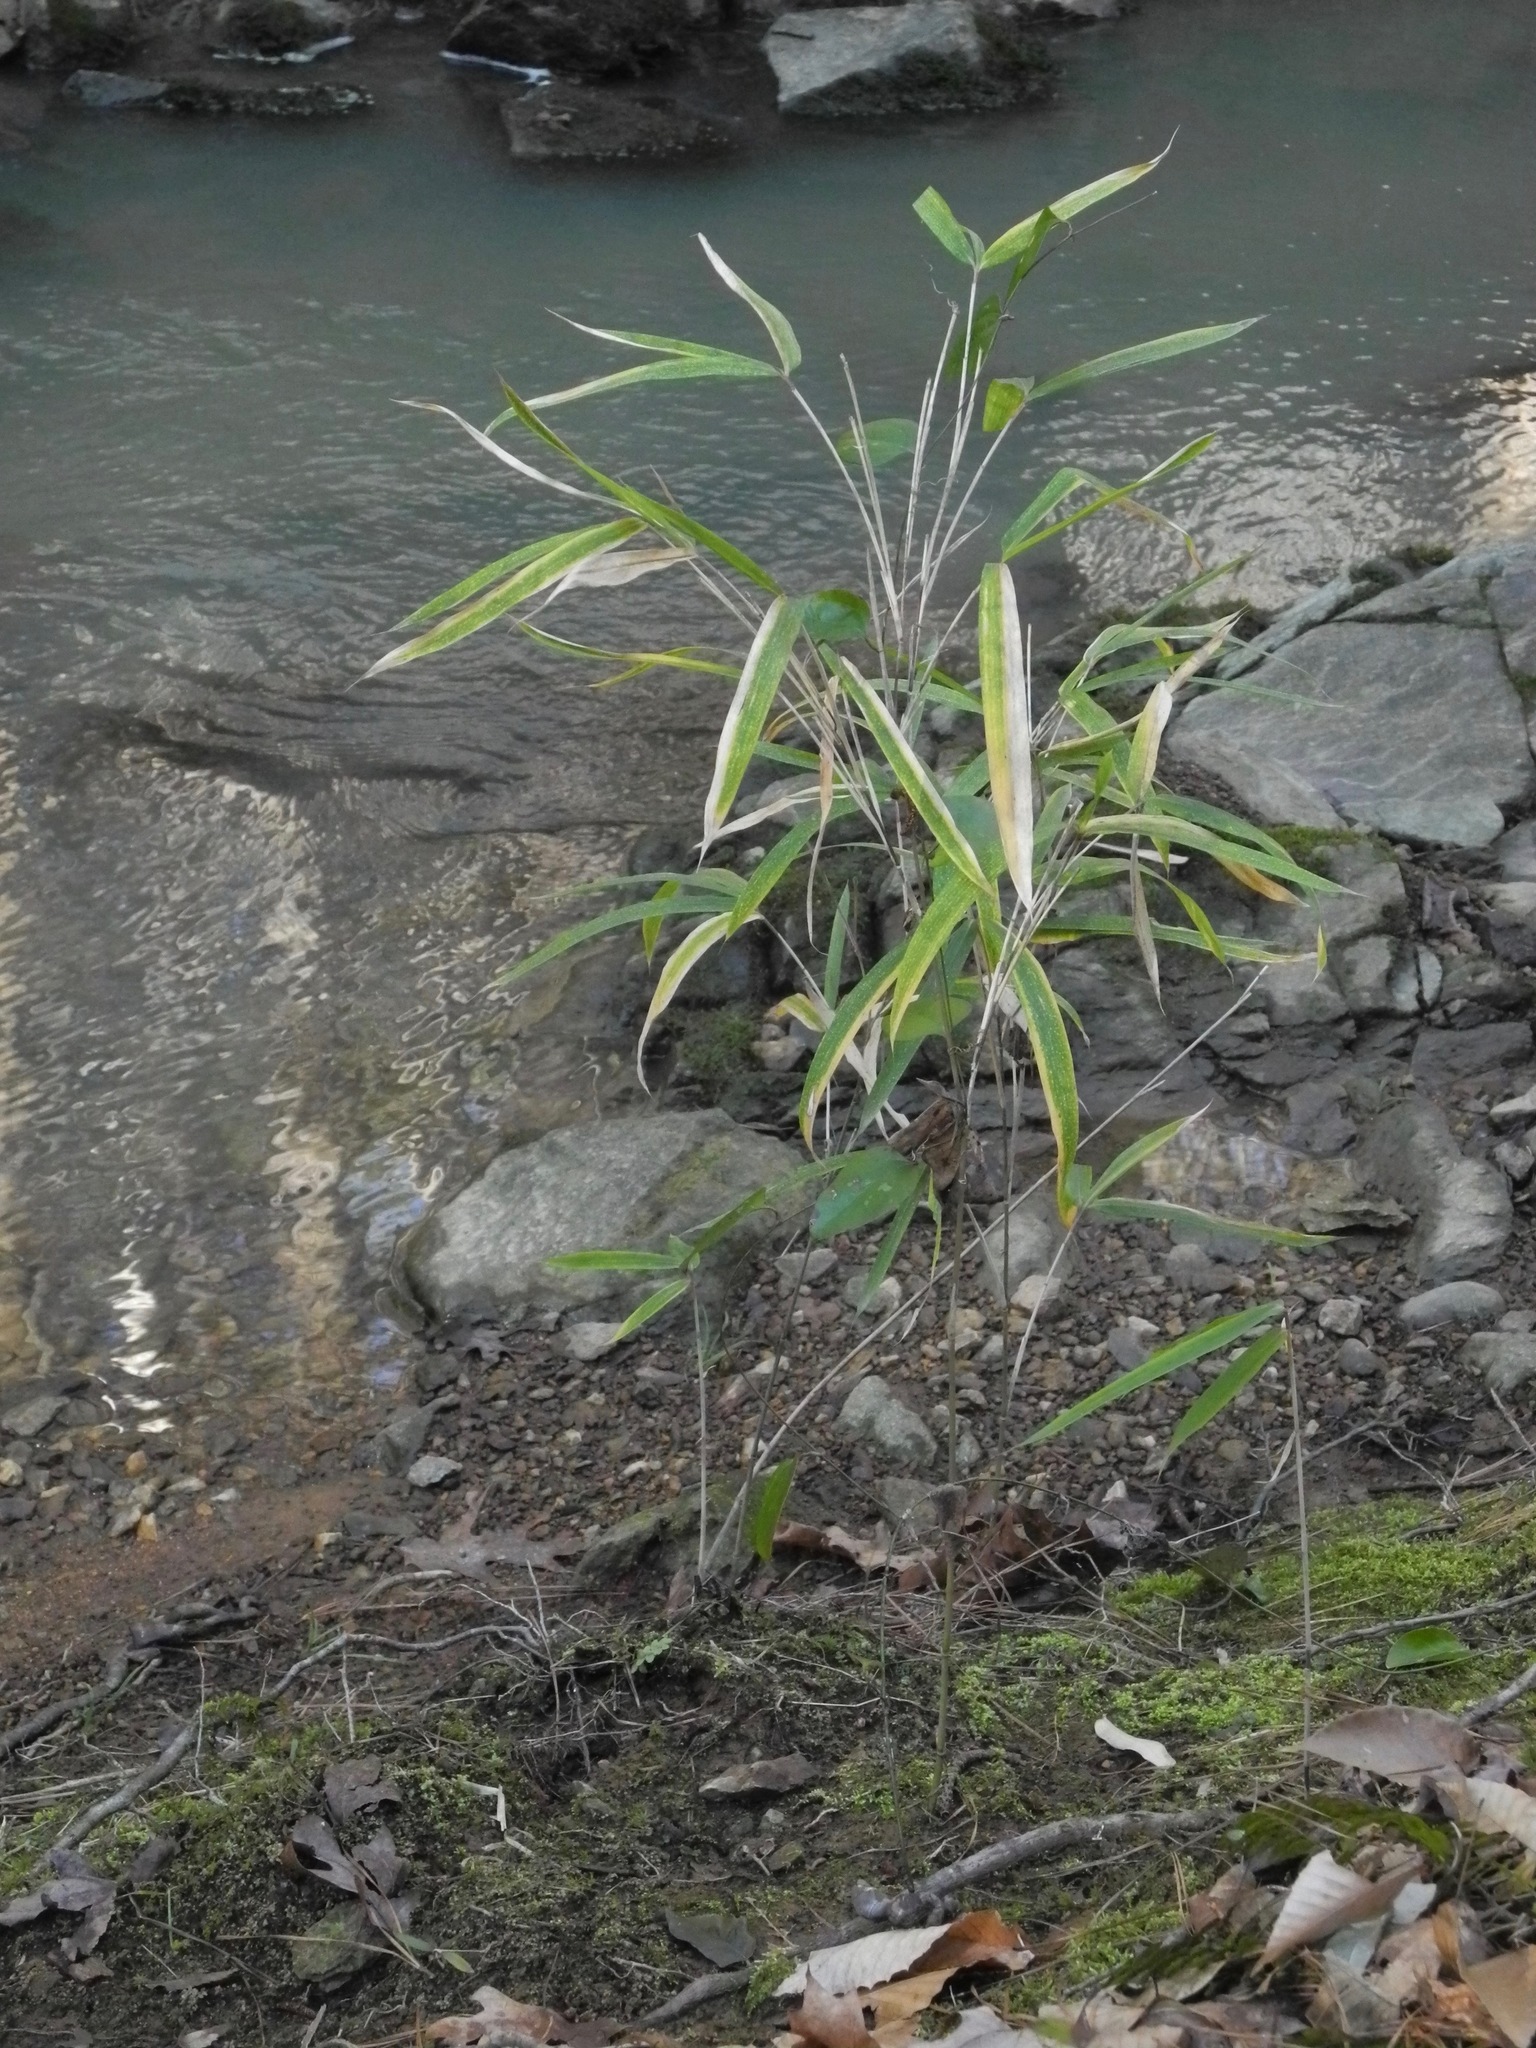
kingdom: Plantae
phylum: Tracheophyta
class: Liliopsida
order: Poales
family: Poaceae
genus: Arundinaria
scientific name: Arundinaria gigantea
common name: Giant cane
